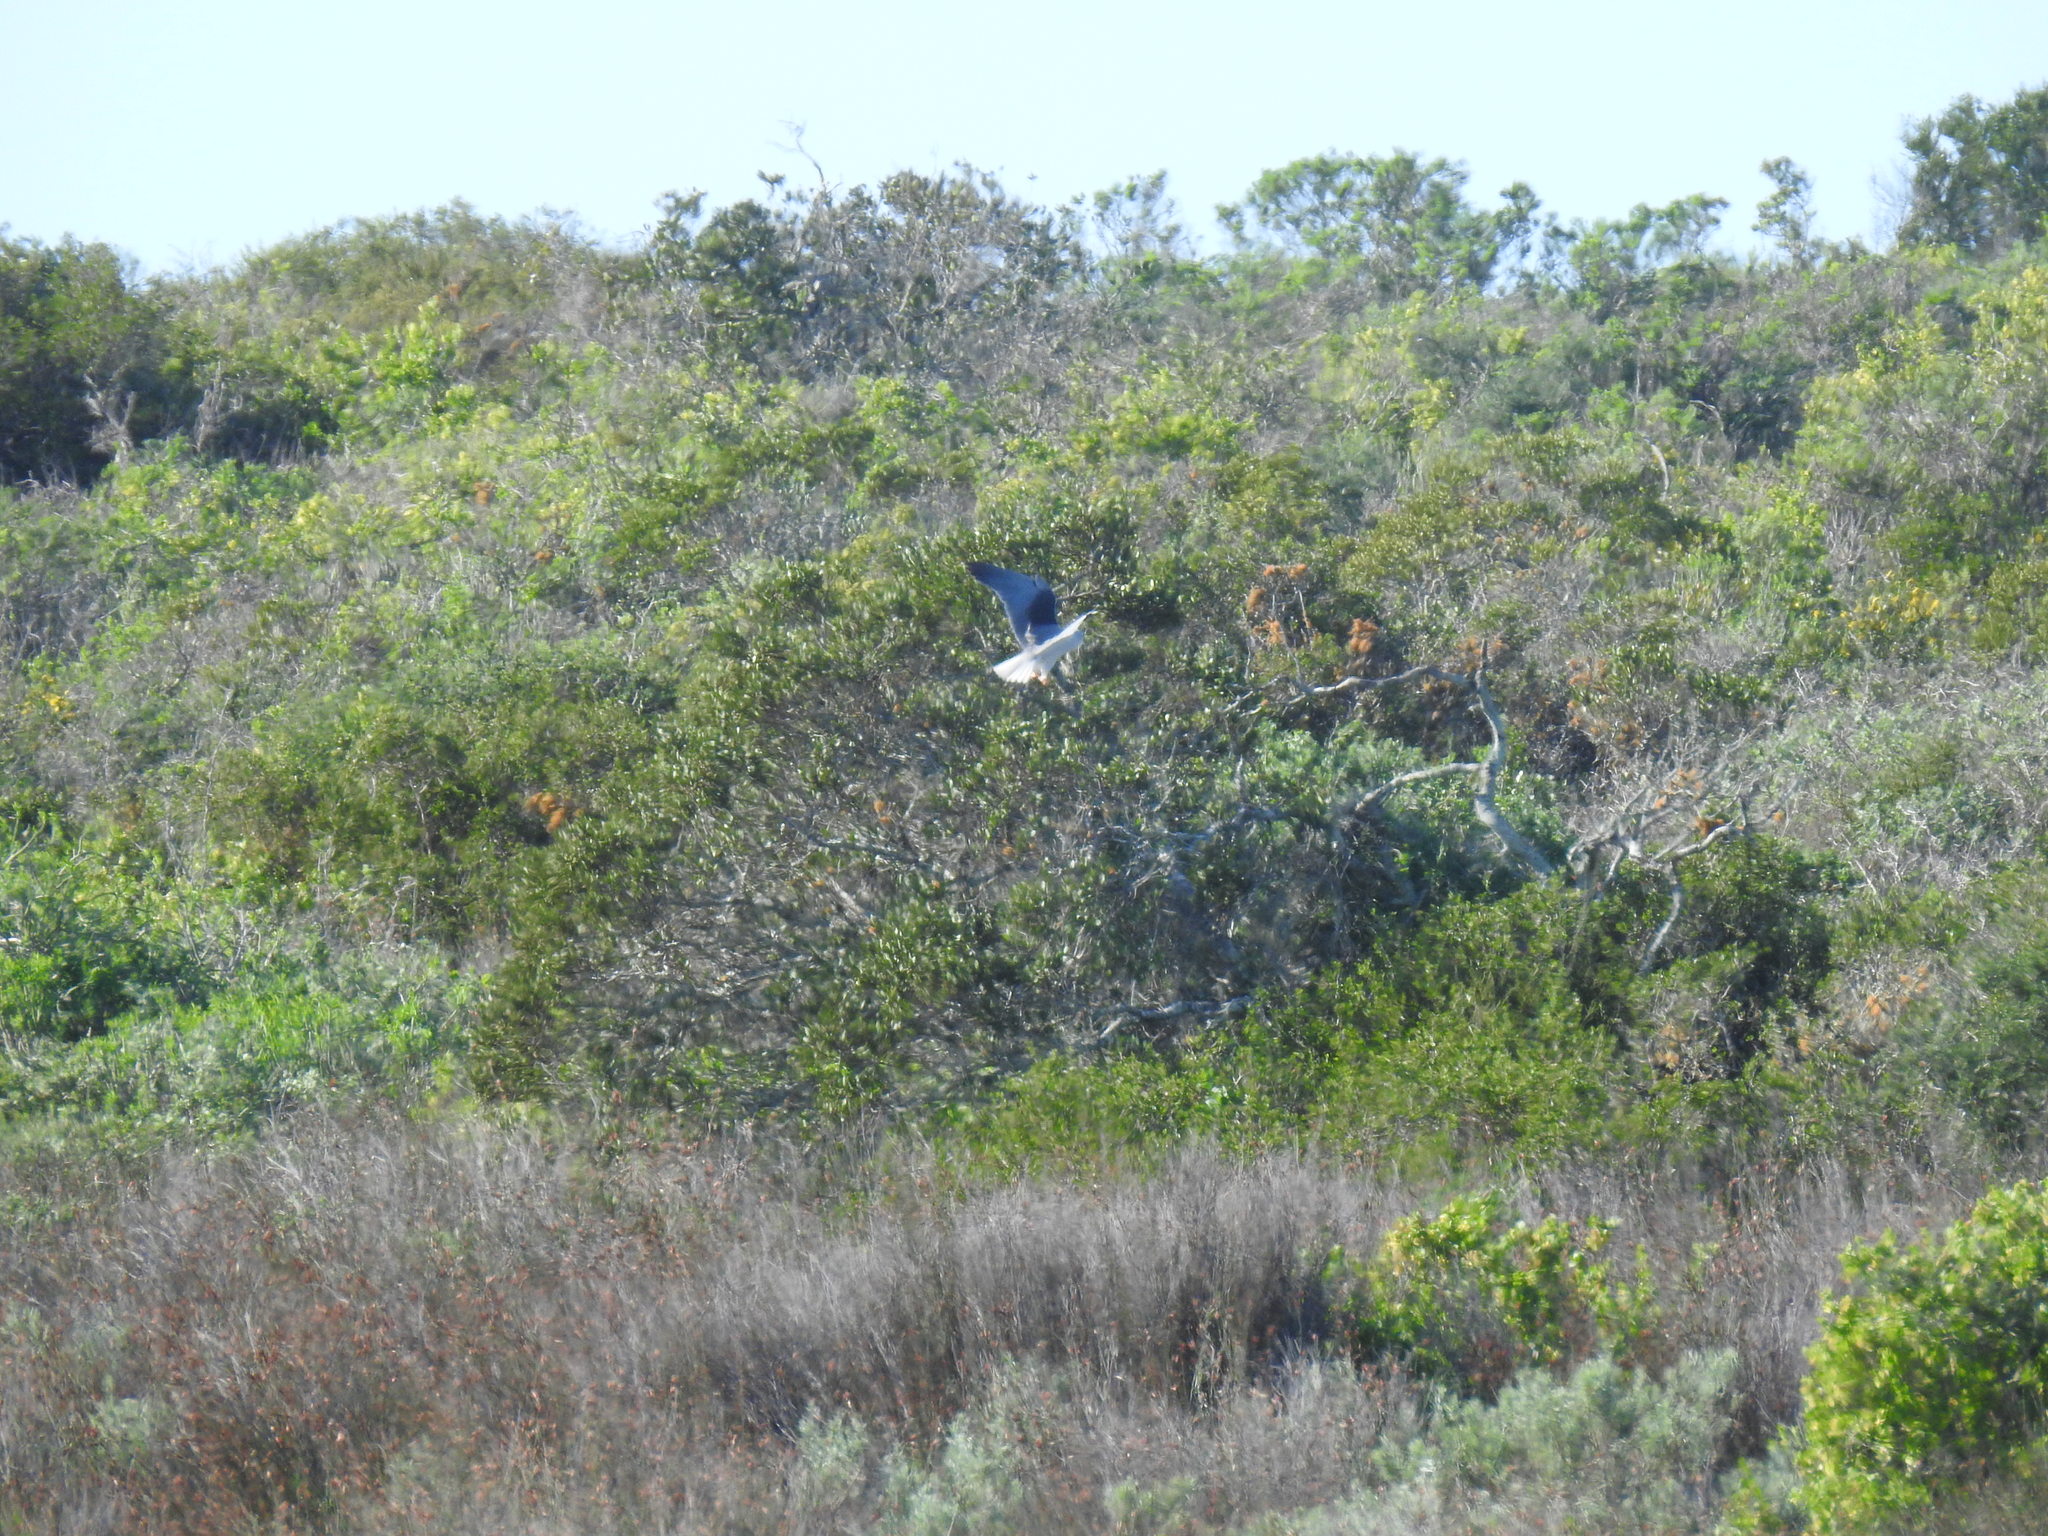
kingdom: Animalia
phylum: Chordata
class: Aves
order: Accipitriformes
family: Accipitridae
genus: Elanus
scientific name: Elanus caeruleus
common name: Black-winged kite
